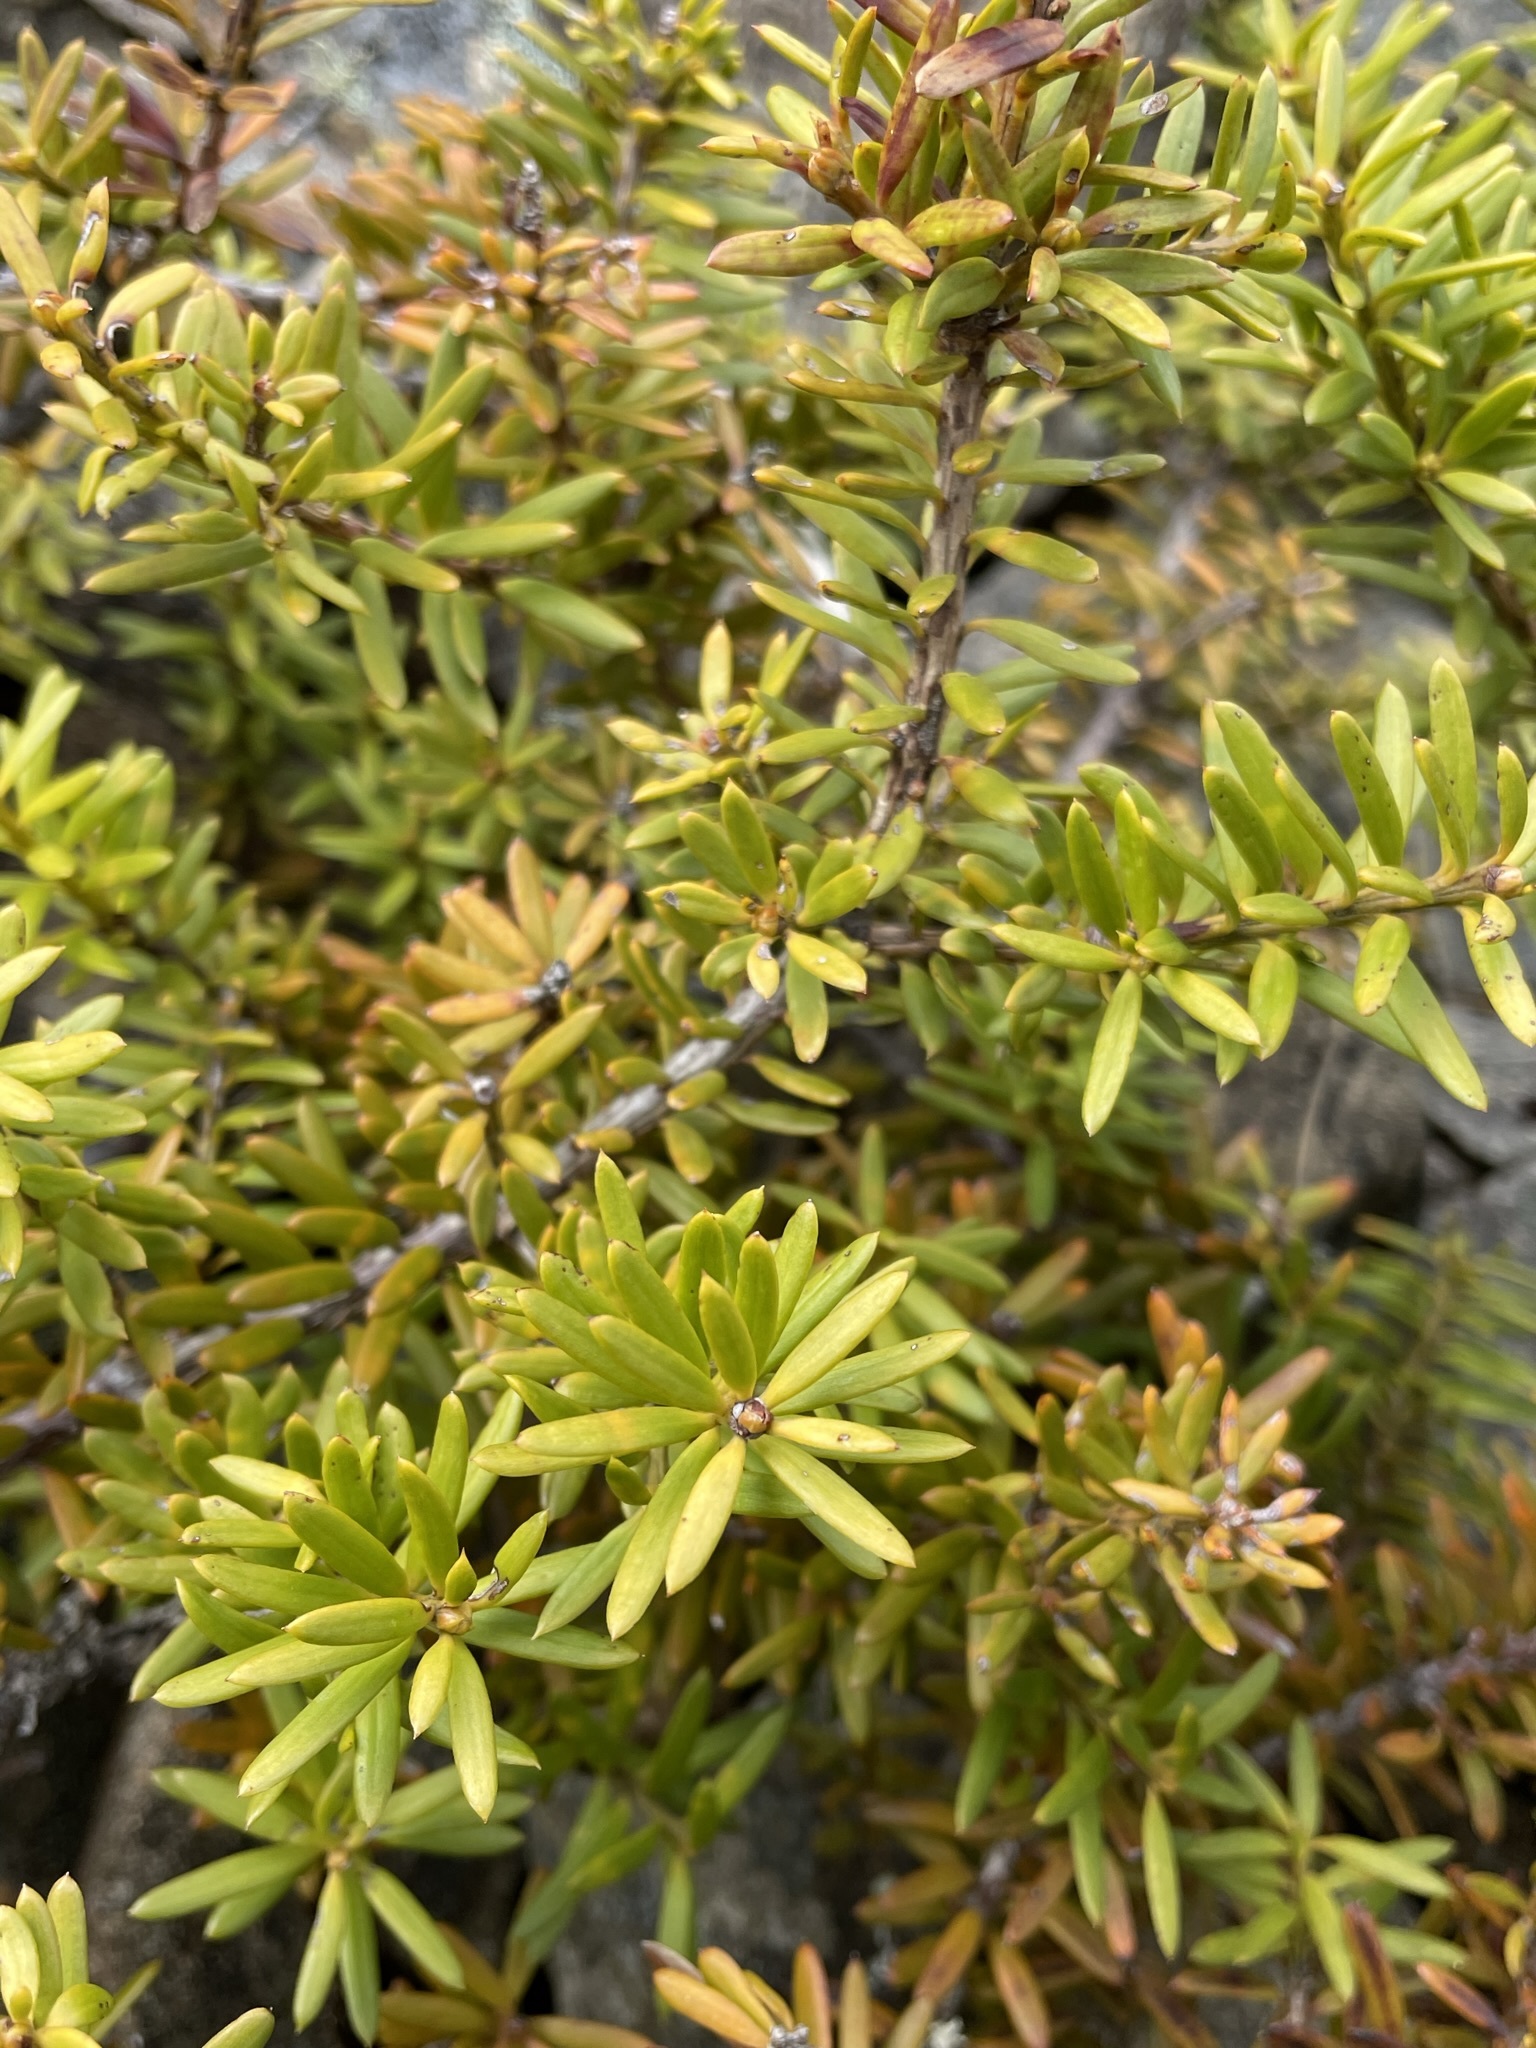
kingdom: Plantae
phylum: Tracheophyta
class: Pinopsida
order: Pinales
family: Podocarpaceae
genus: Podocarpus
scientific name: Podocarpus nivalis
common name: Alpine totara
